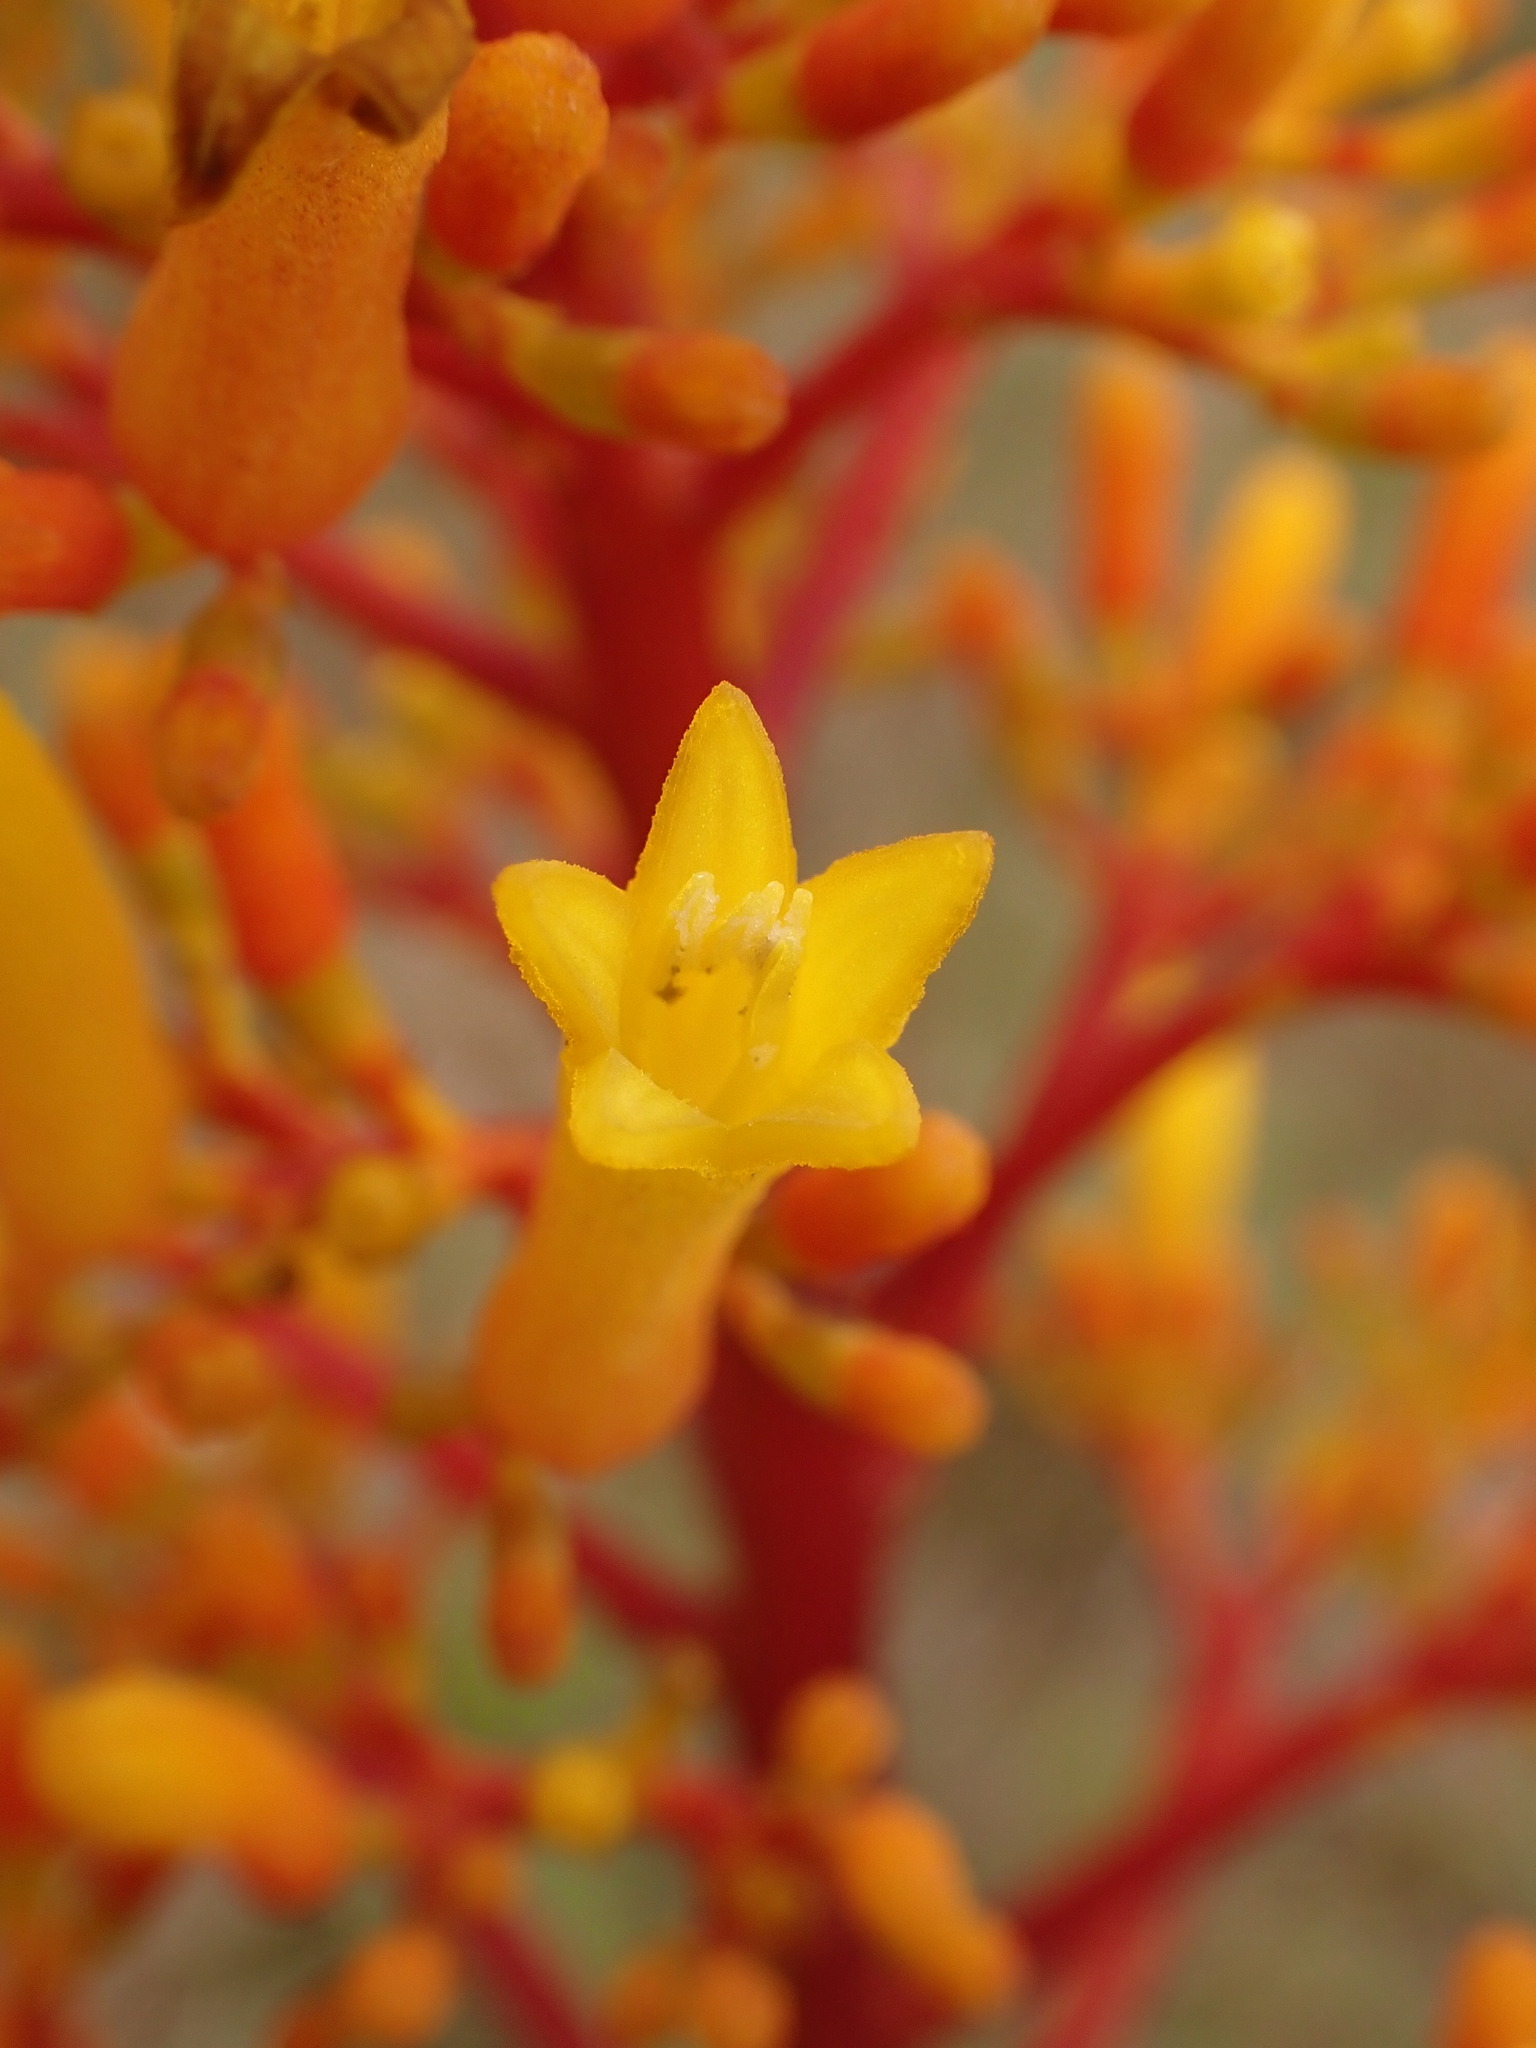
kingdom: Plantae
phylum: Tracheophyta
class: Magnoliopsida
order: Gentianales
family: Rubiaceae
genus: Palicourea
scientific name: Palicourea rigida
